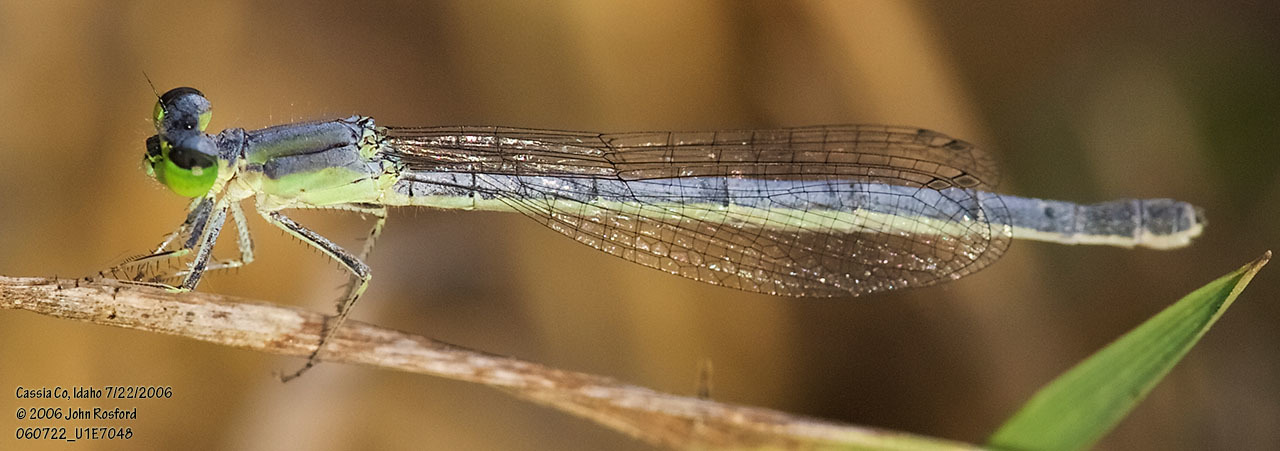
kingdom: Animalia
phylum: Arthropoda
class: Insecta
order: Odonata
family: Coenagrionidae
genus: Ischnura
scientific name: Ischnura perparva
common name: Western forktail
